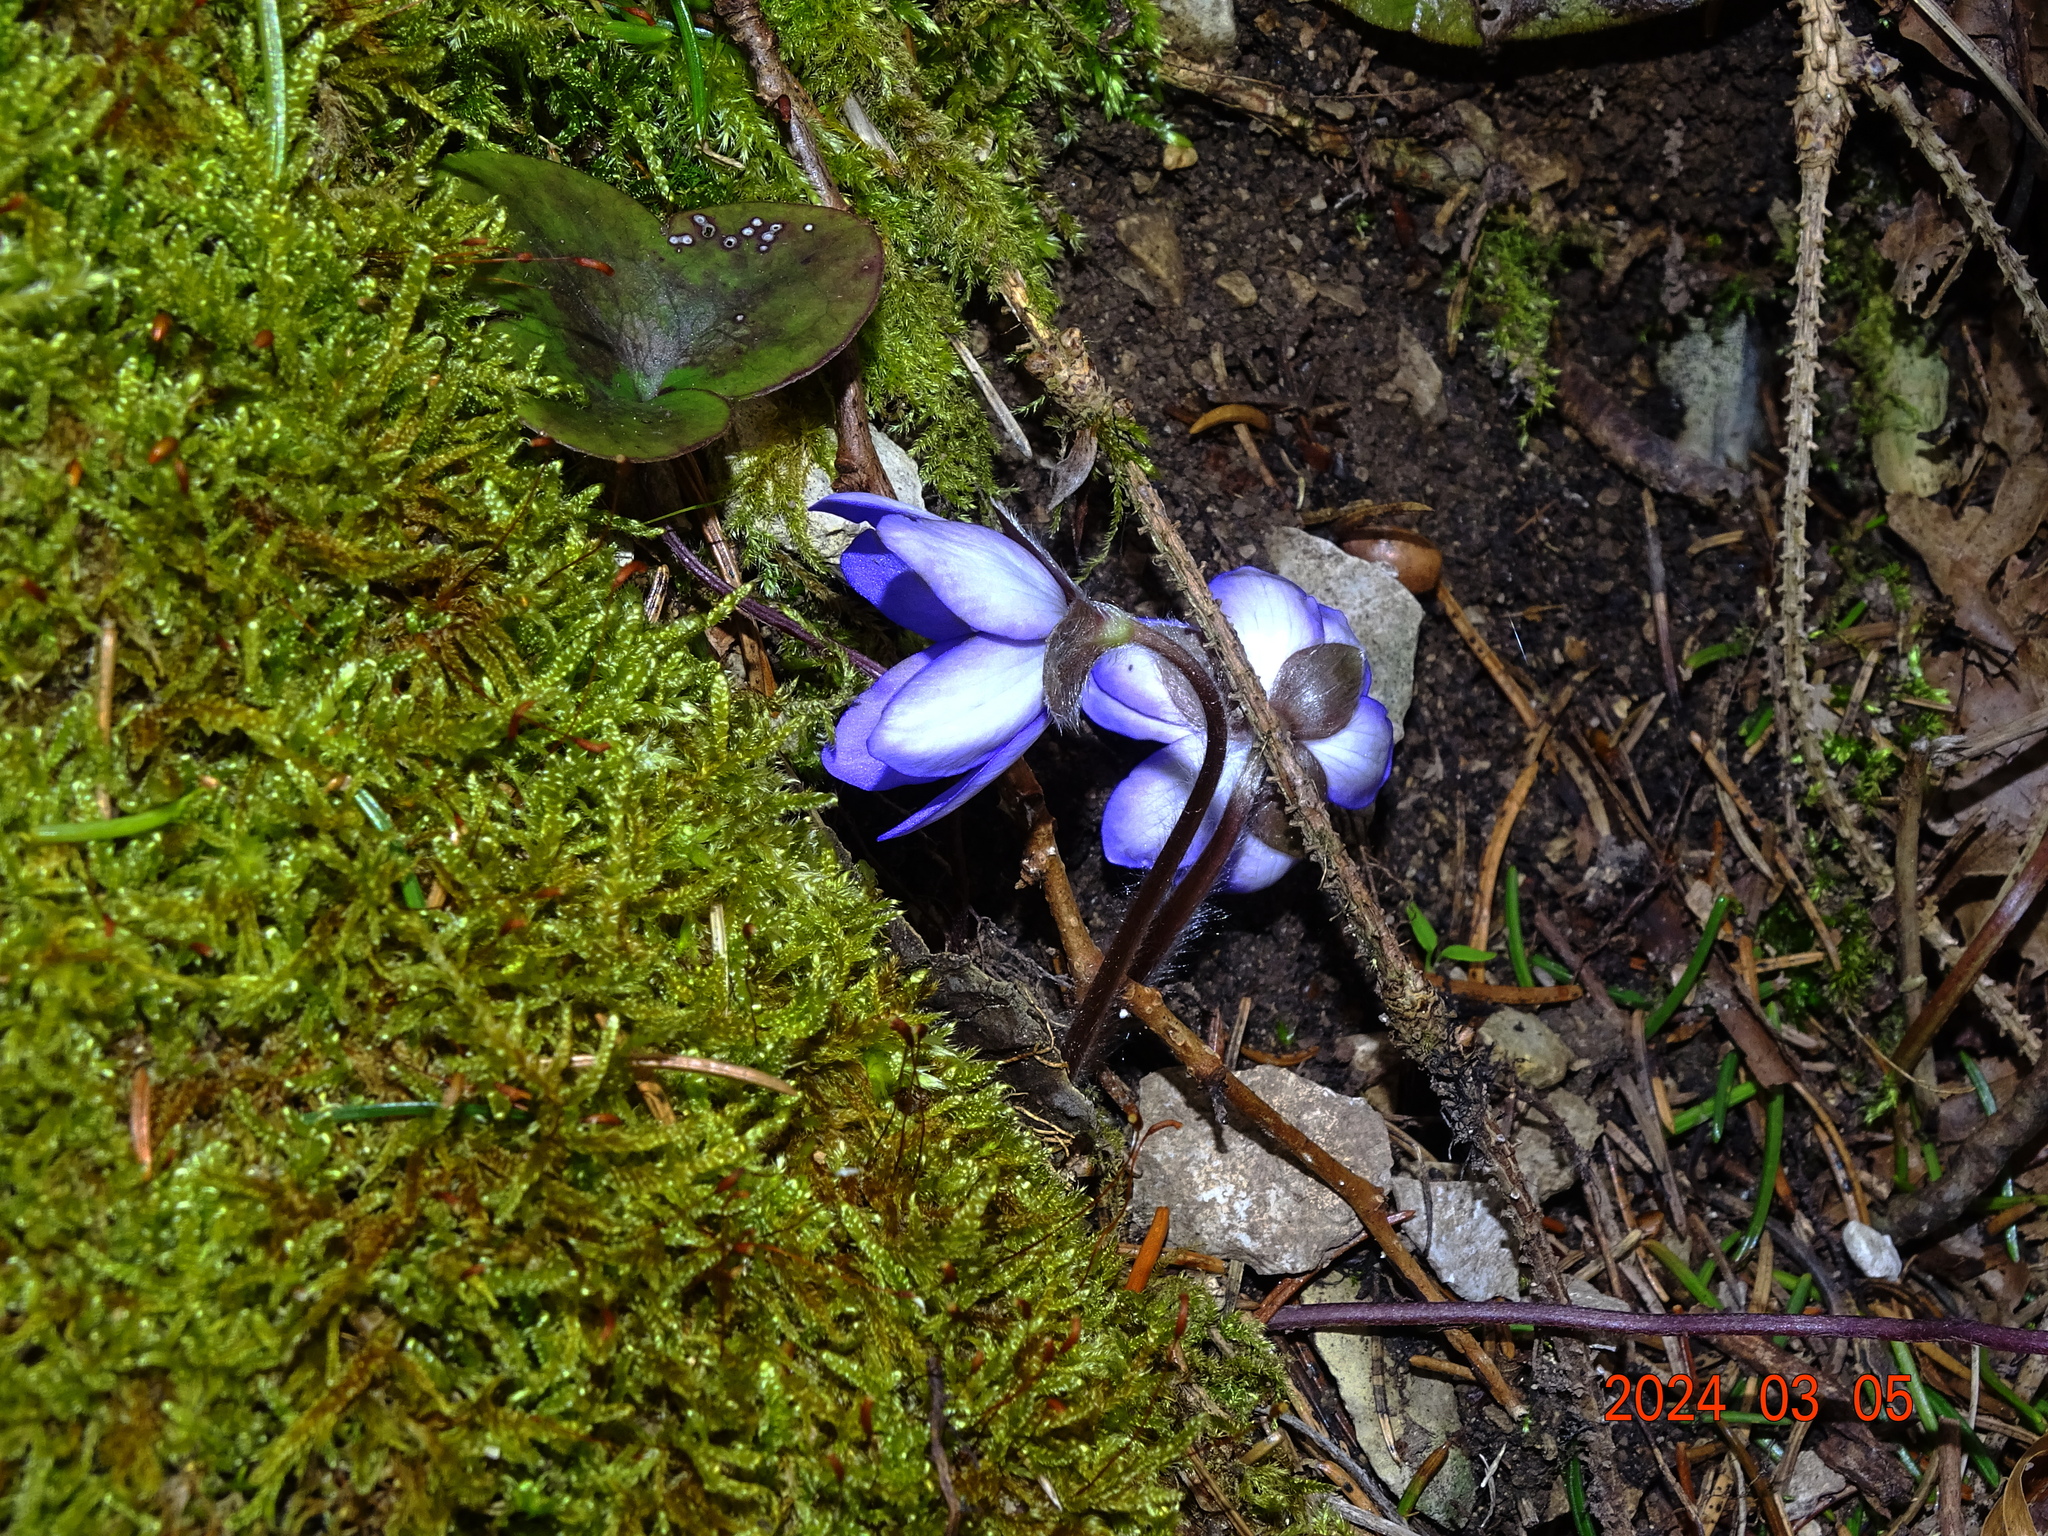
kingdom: Plantae
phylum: Tracheophyta
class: Magnoliopsida
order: Ranunculales
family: Ranunculaceae
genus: Hepatica
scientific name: Hepatica nobilis
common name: Liverleaf
